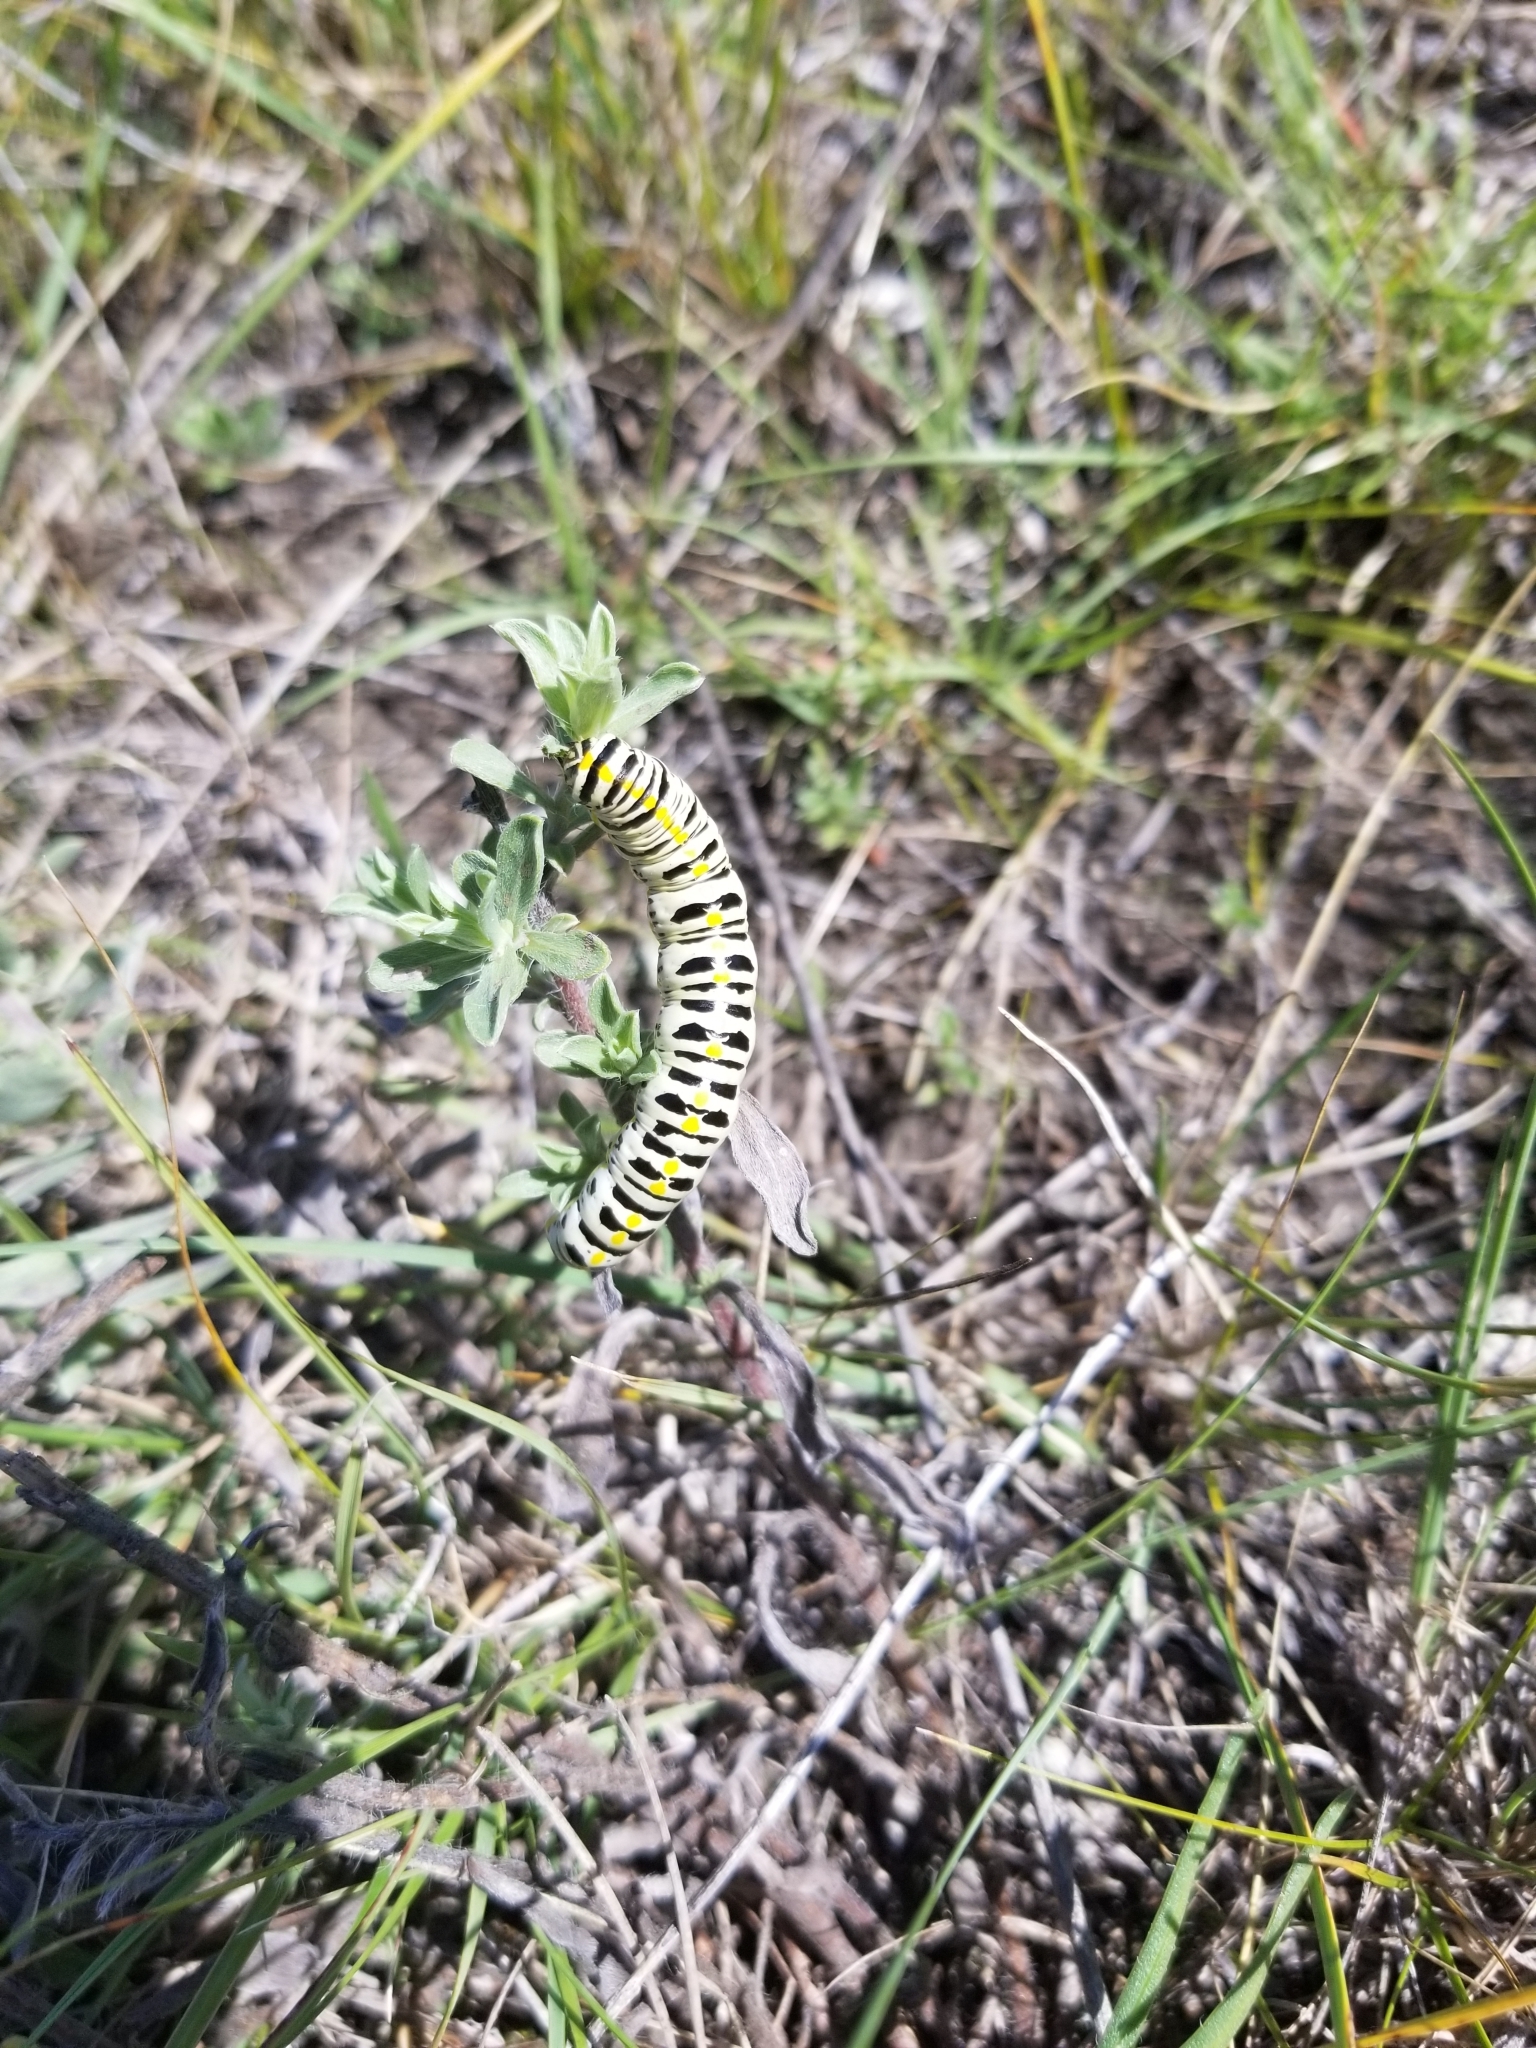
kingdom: Animalia
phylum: Arthropoda
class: Insecta
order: Lepidoptera
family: Noctuidae
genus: Cucullia
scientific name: Cucullia speyeri
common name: Speyer's cucullia moth
